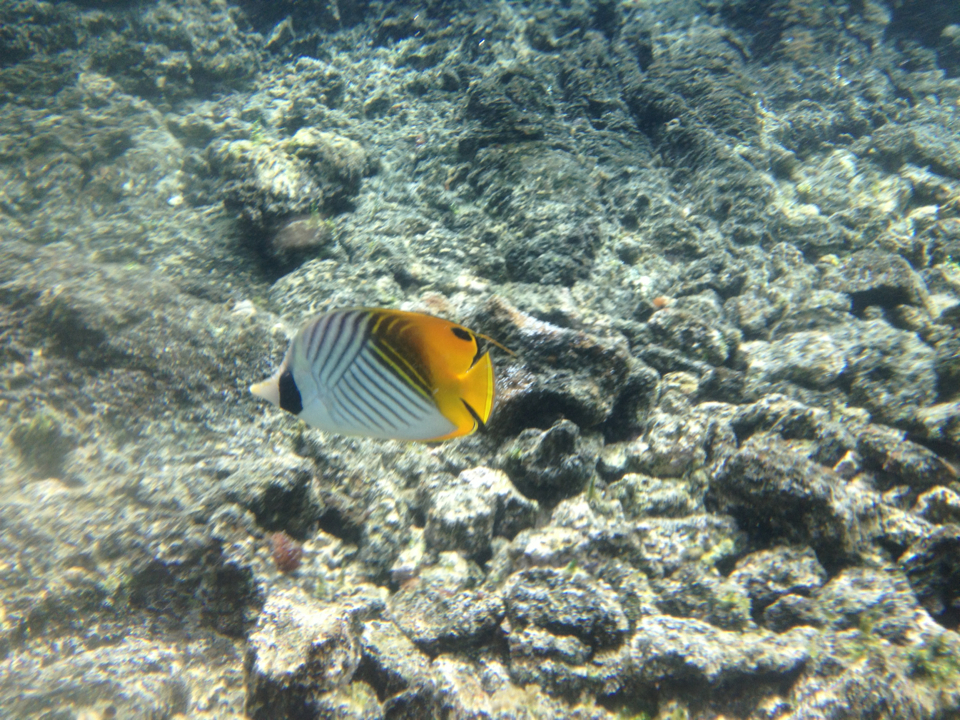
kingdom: Animalia
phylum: Chordata
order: Perciformes
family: Chaetodontidae
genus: Chaetodon
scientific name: Chaetodon auriga
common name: Threadfin butterflyfish
